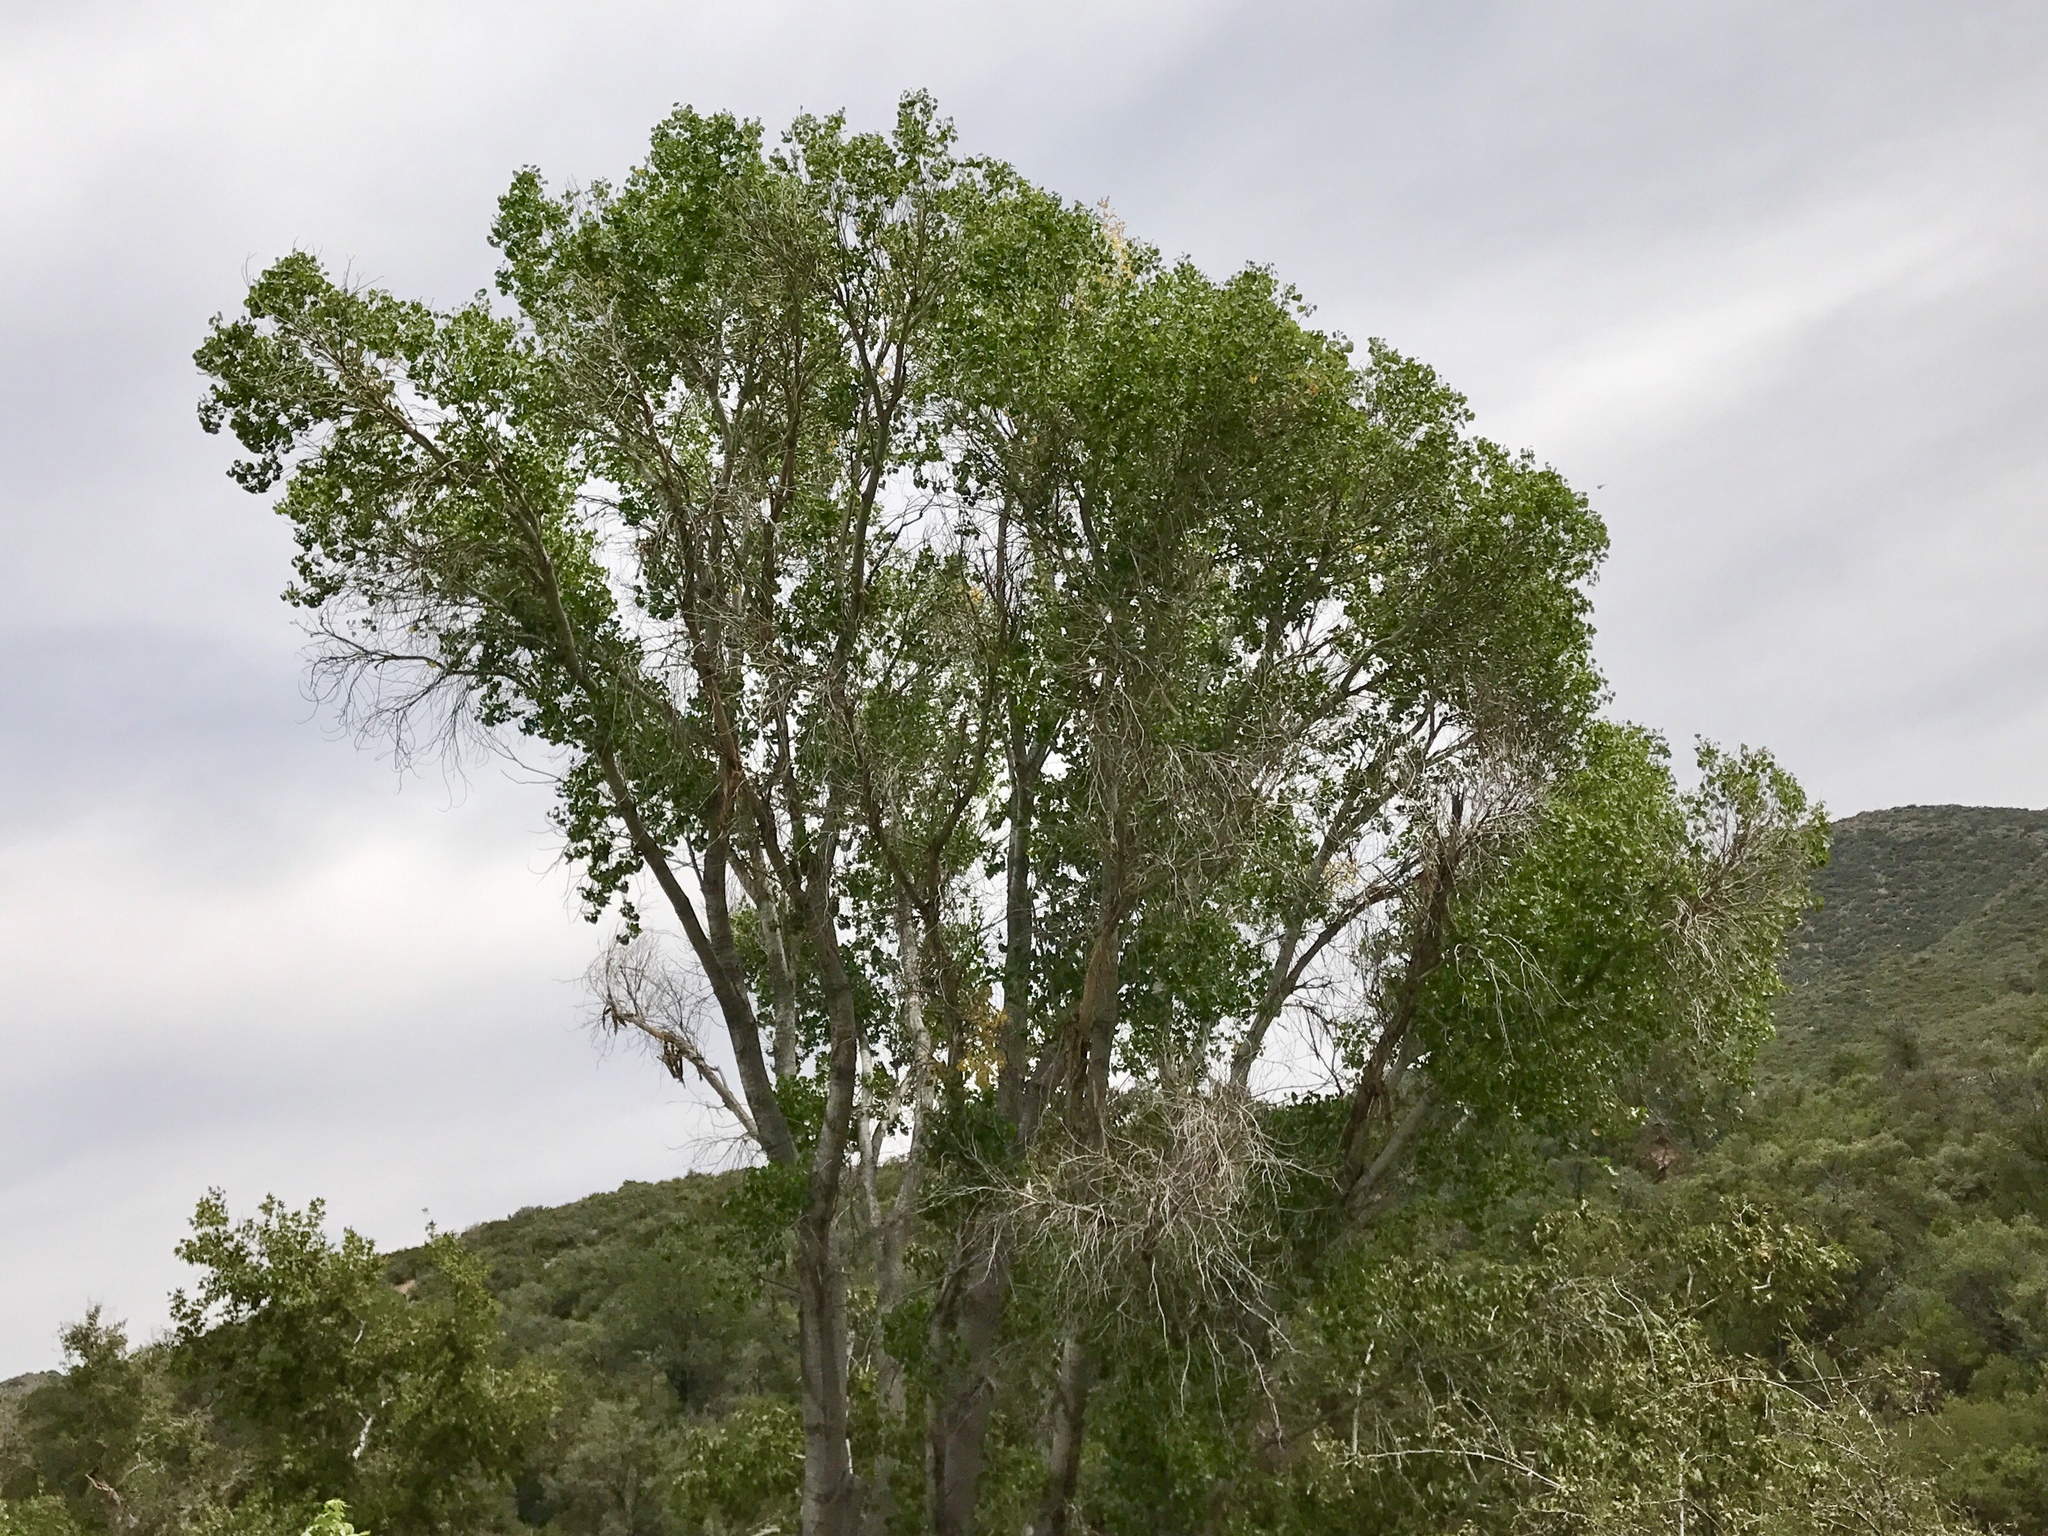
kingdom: Plantae
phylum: Tracheophyta
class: Magnoliopsida
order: Malpighiales
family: Salicaceae
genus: Populus
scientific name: Populus fremontii
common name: Fremont's cottonwood
